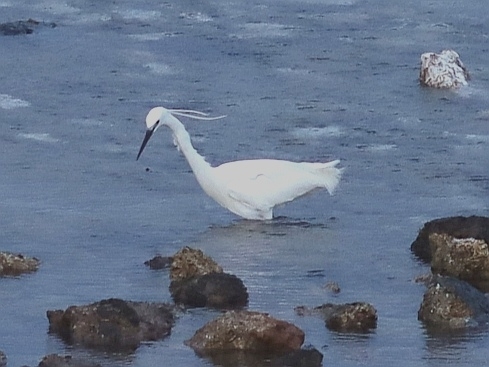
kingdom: Animalia
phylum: Chordata
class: Aves
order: Pelecaniformes
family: Ardeidae
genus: Egretta
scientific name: Egretta garzetta
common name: Little egret
